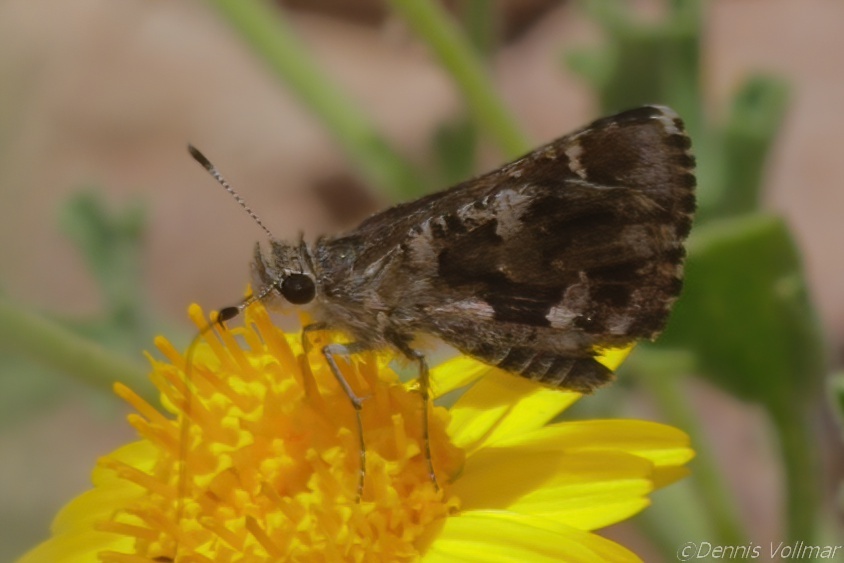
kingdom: Animalia
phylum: Arthropoda
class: Insecta
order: Lepidoptera
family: Hesperiidae
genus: Mastor
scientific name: Mastor nysa
